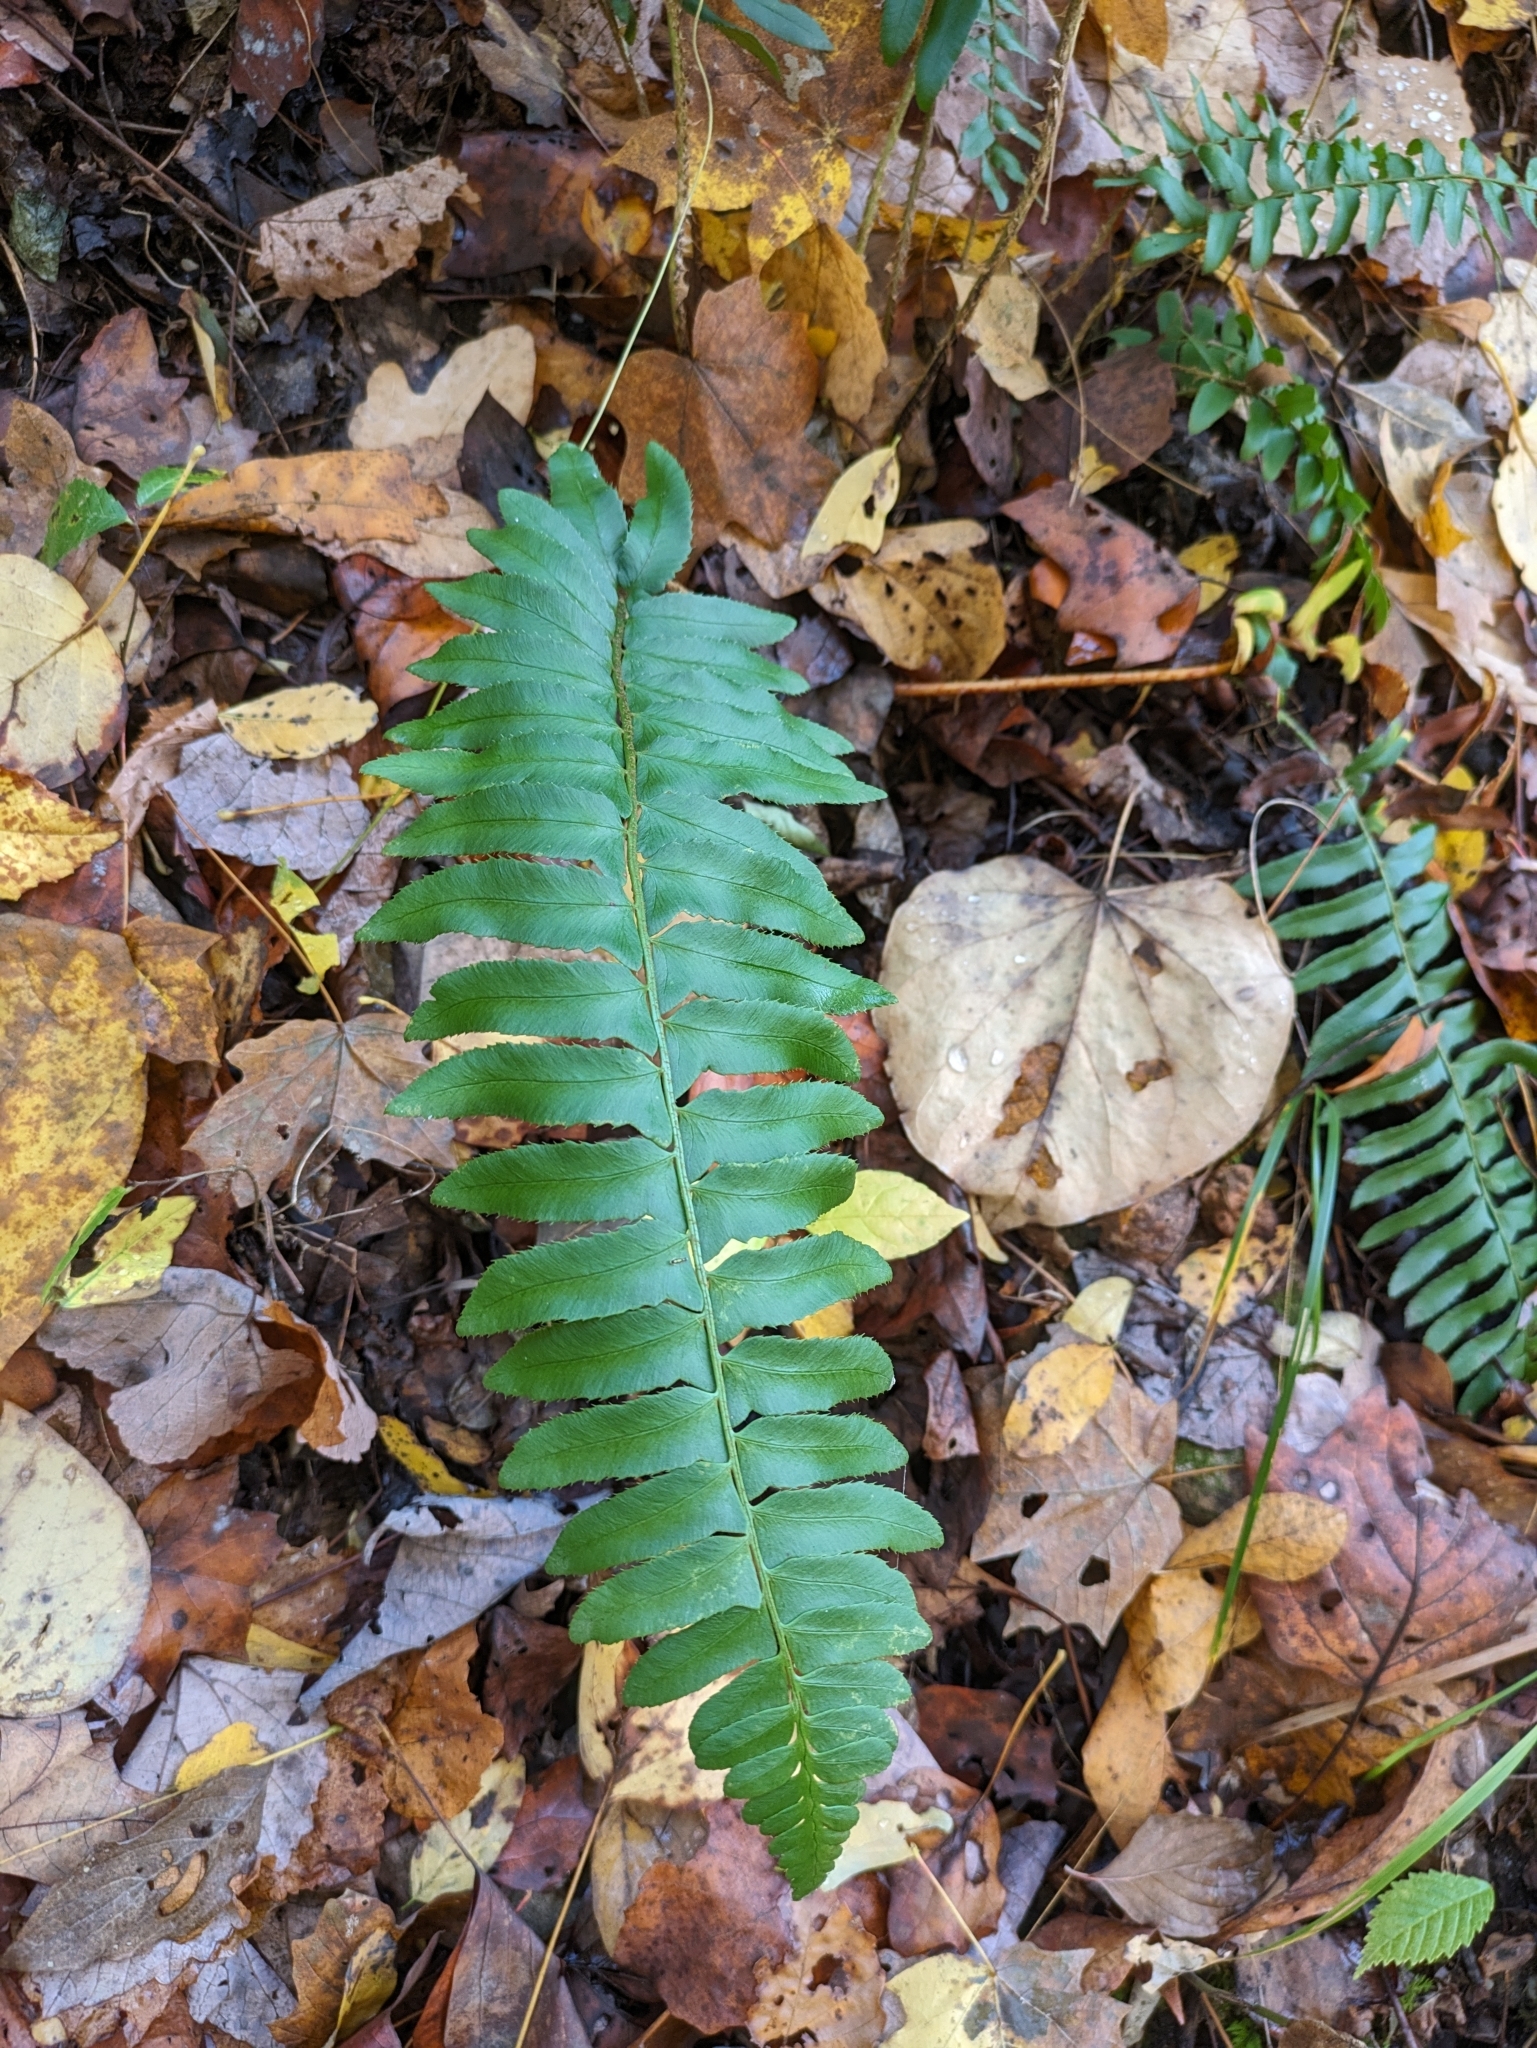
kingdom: Plantae
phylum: Tracheophyta
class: Polypodiopsida
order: Polypodiales
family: Dryopteridaceae
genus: Polystichum
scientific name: Polystichum acrostichoides
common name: Christmas fern
